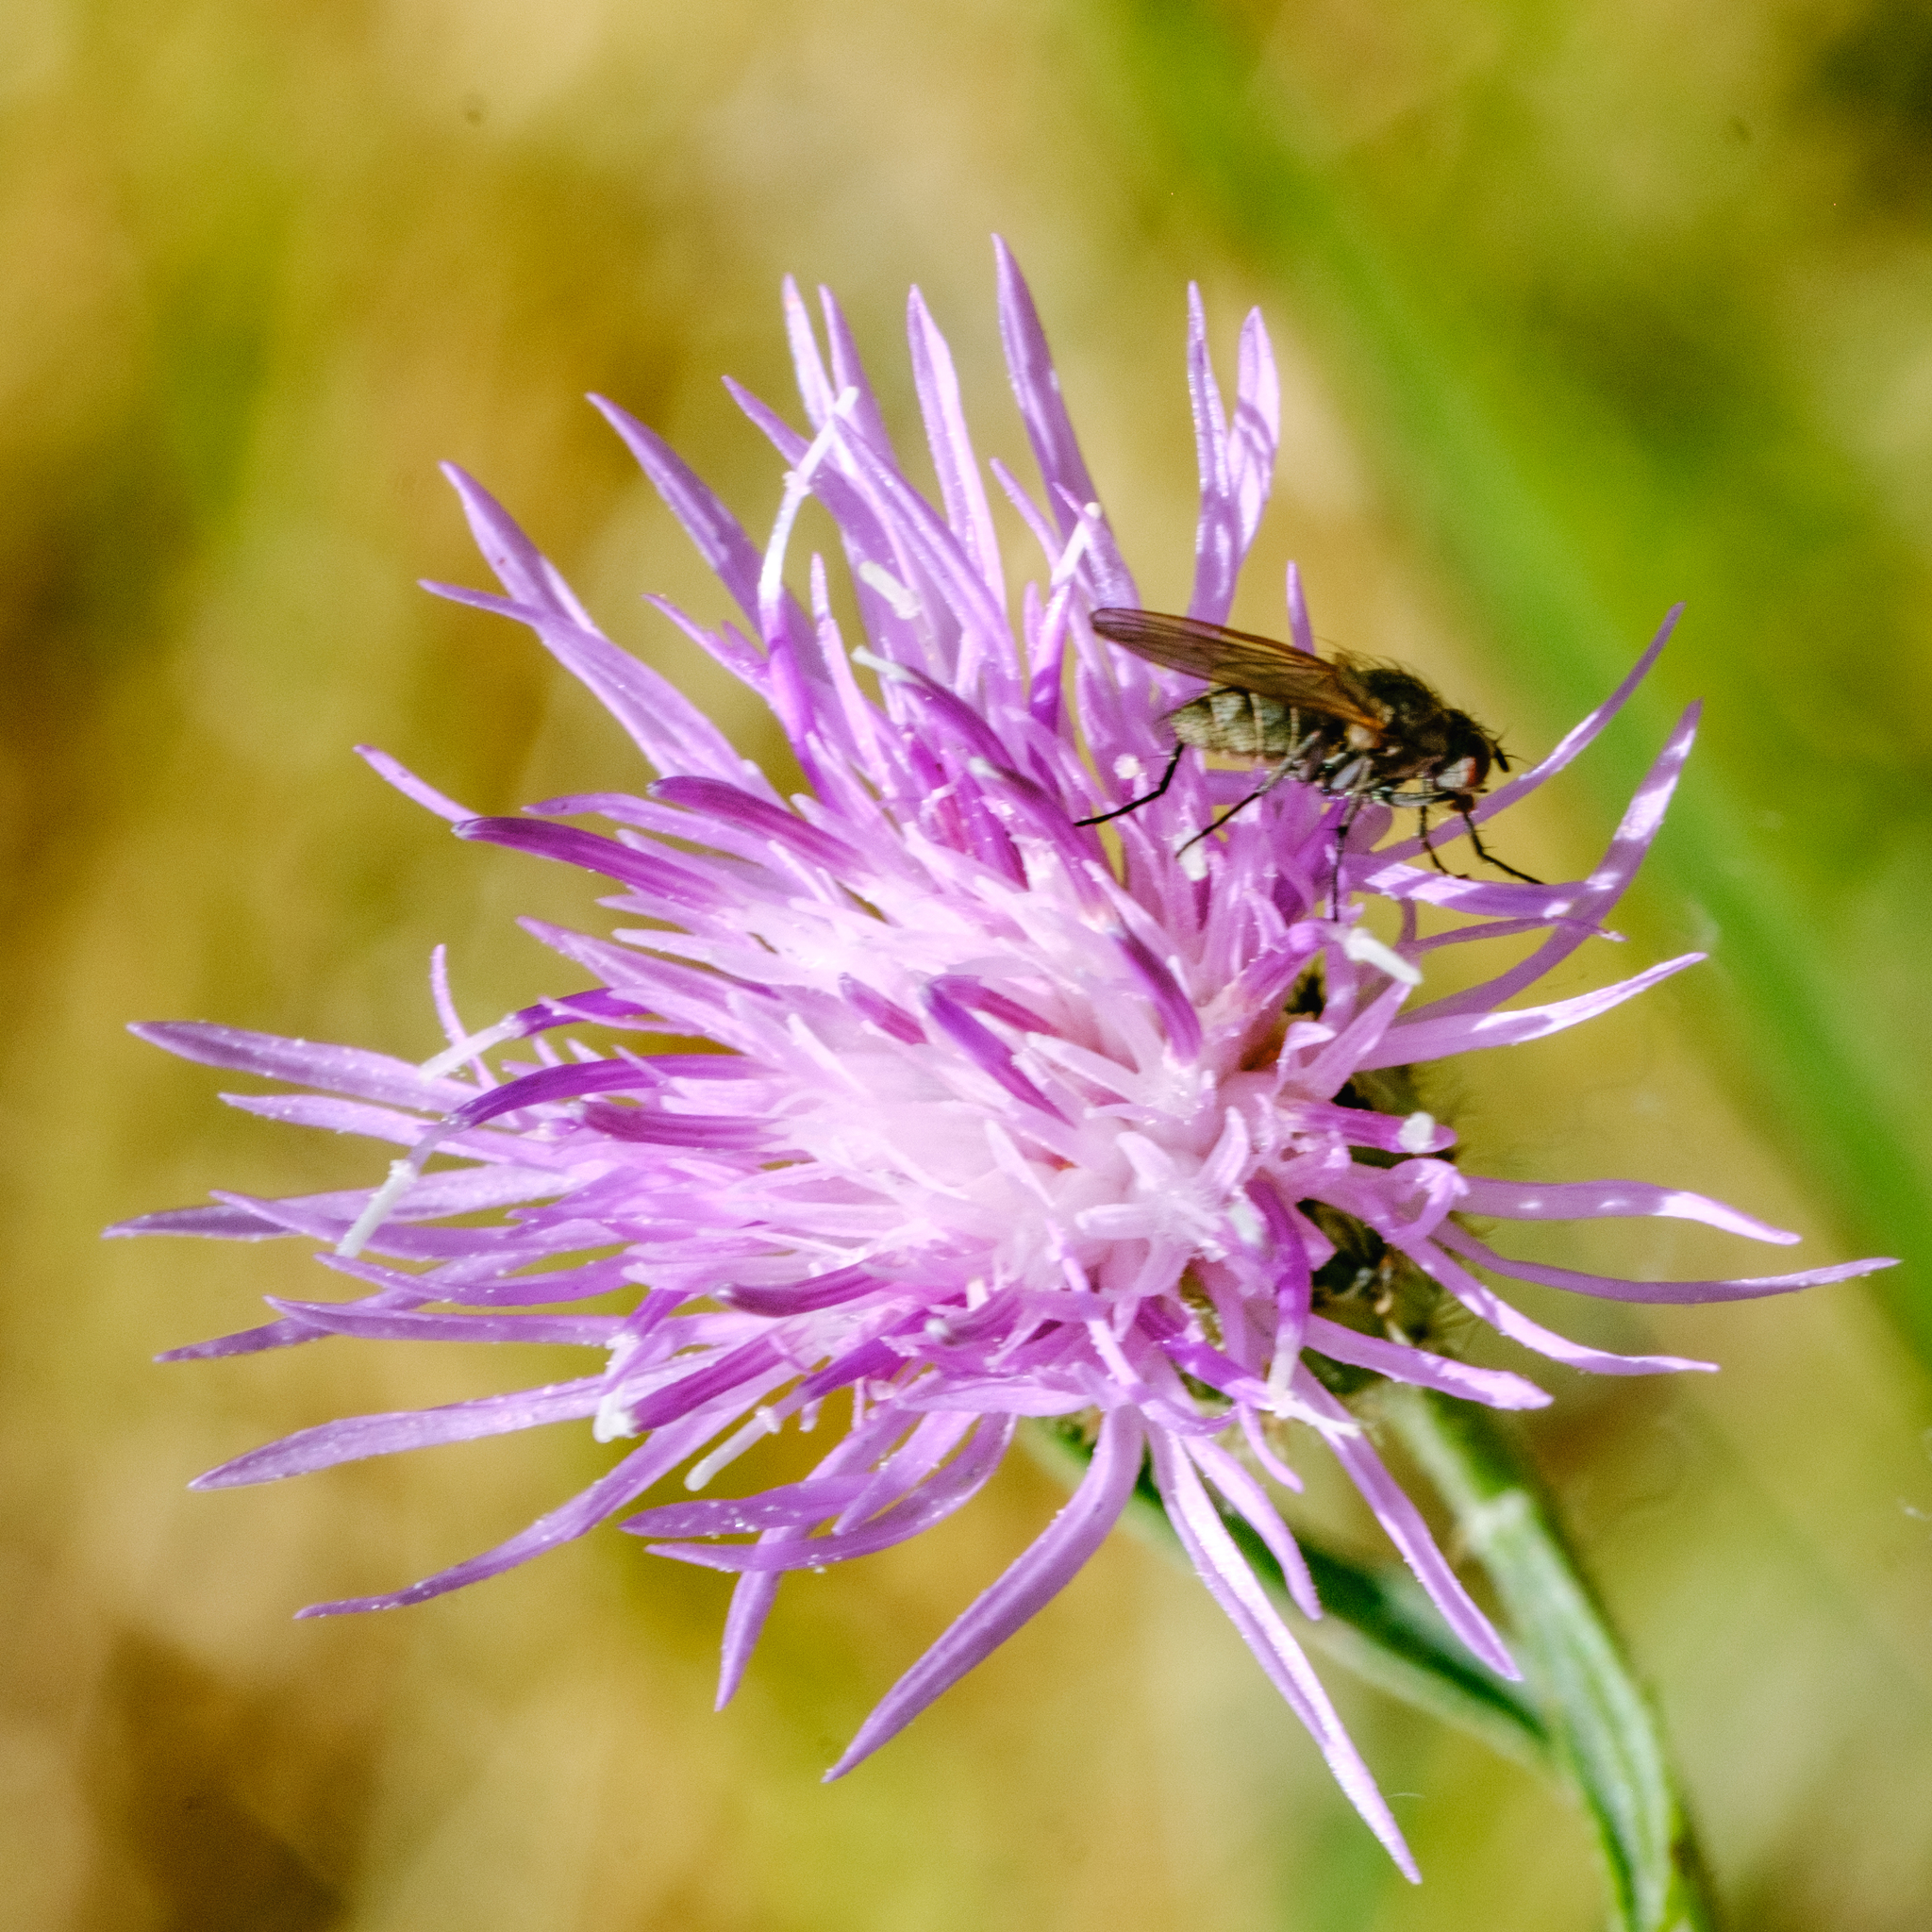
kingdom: Plantae
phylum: Tracheophyta
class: Magnoliopsida
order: Asterales
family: Asteraceae
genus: Centaurea
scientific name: Centaurea stoebe
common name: Spotted knapweed
